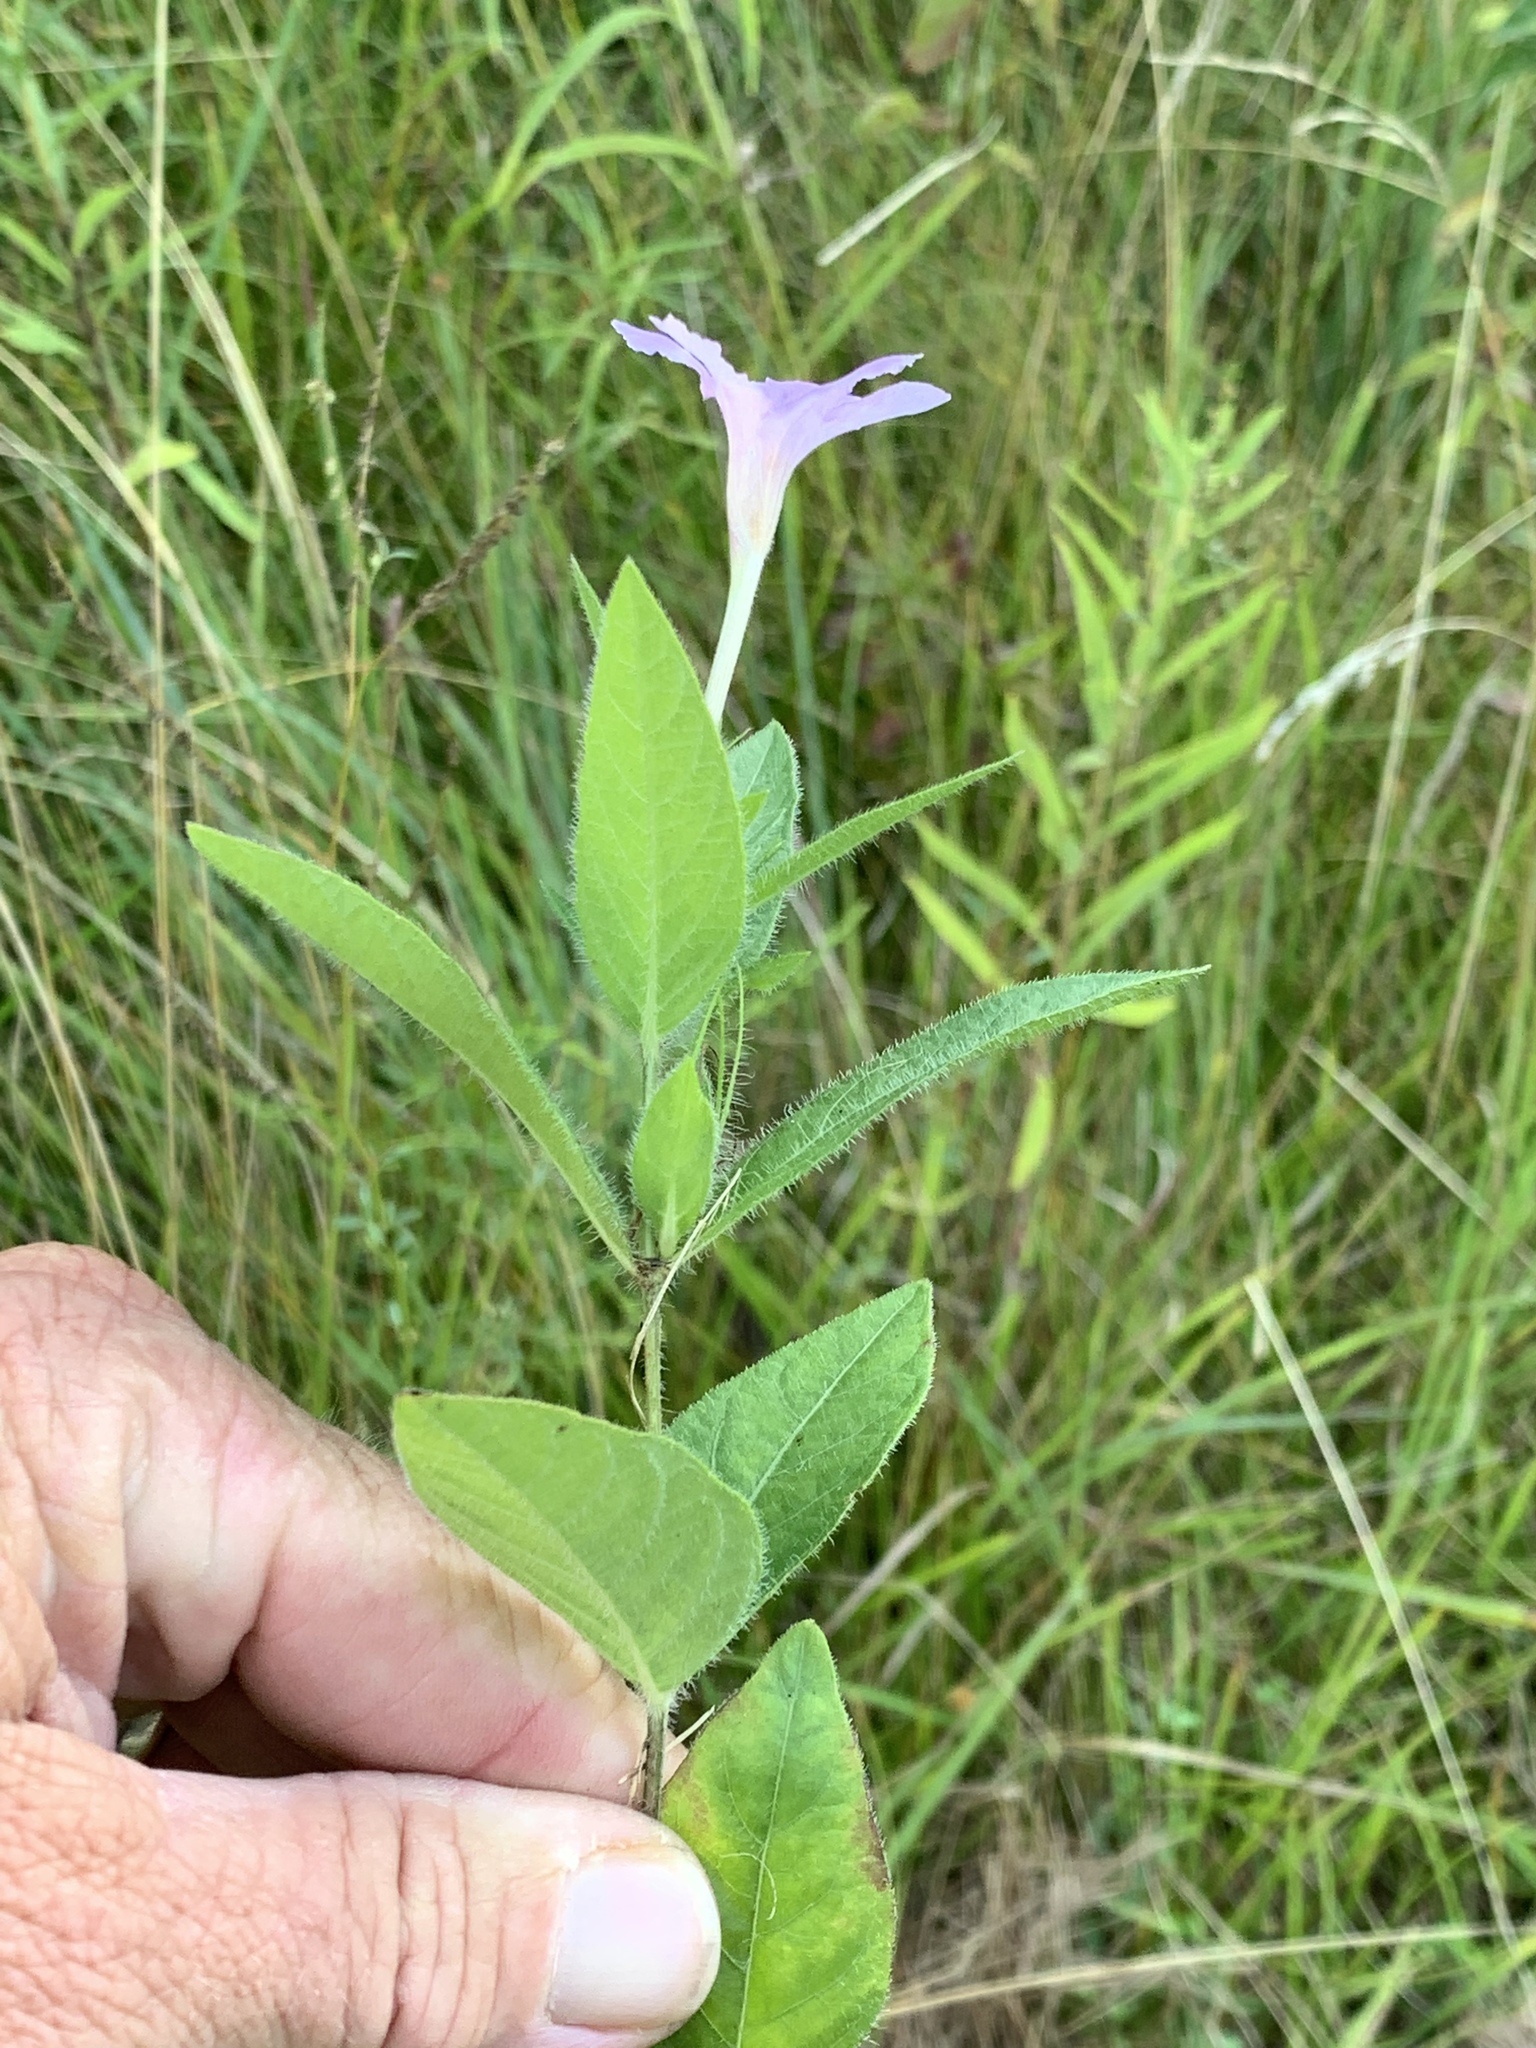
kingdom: Plantae
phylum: Tracheophyta
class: Magnoliopsida
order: Lamiales
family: Acanthaceae
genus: Ruellia
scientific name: Ruellia humilis
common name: Fringe-leaf ruellia
